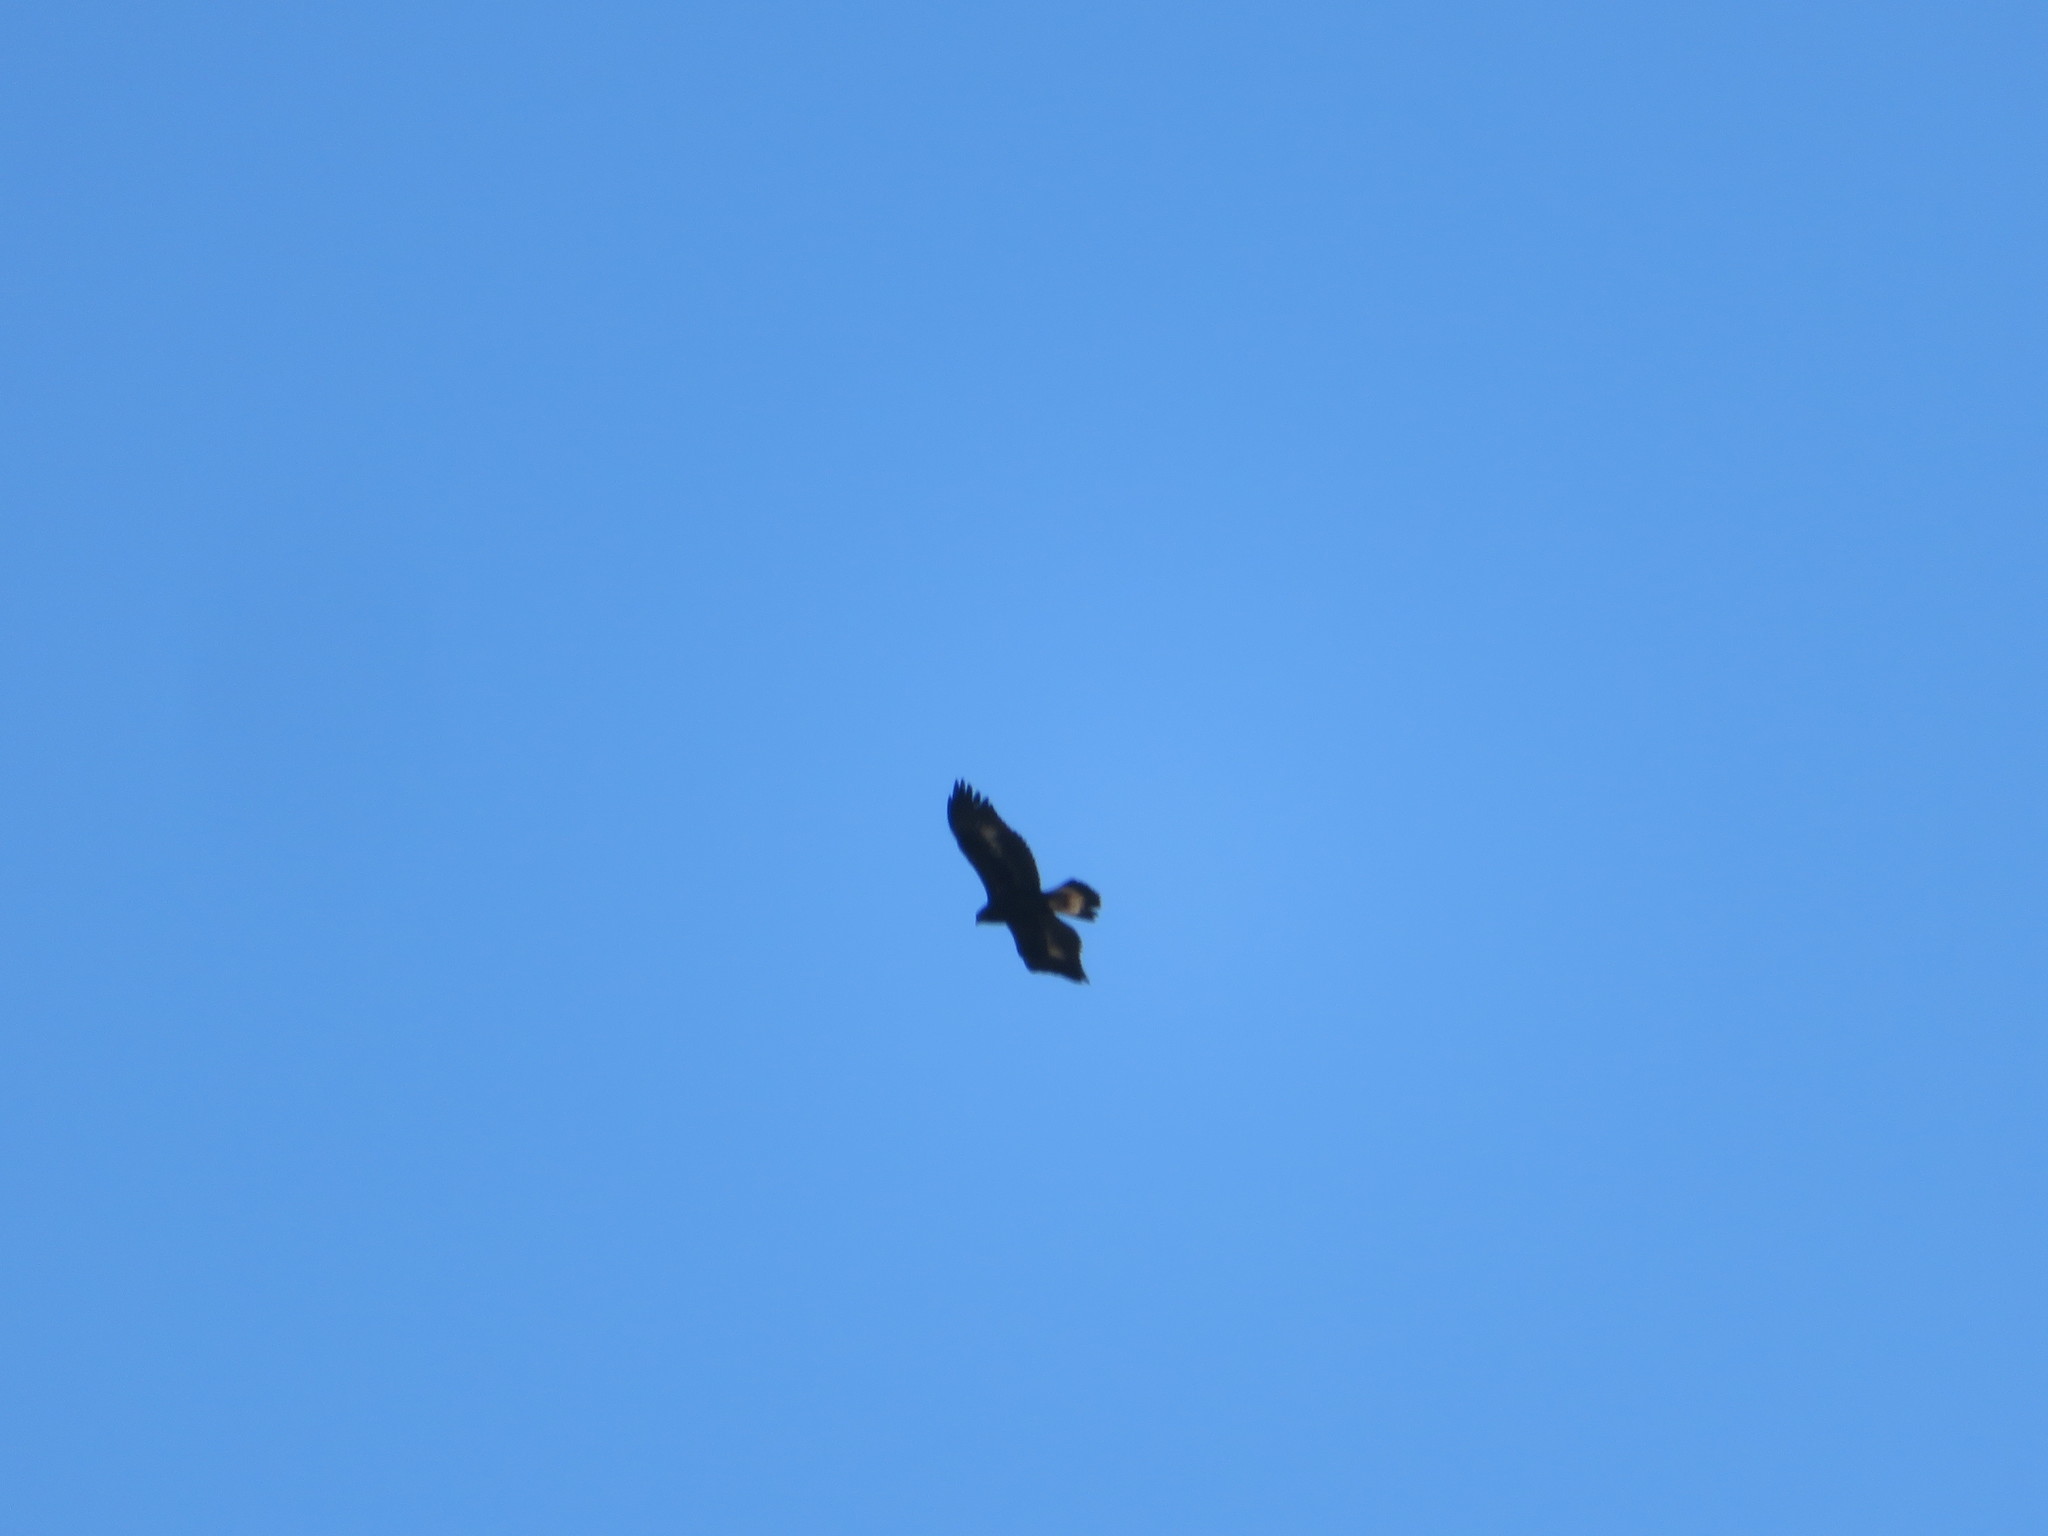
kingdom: Animalia
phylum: Chordata
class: Aves
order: Accipitriformes
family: Accipitridae
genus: Aquila
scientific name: Aquila chrysaetos
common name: Golden eagle
